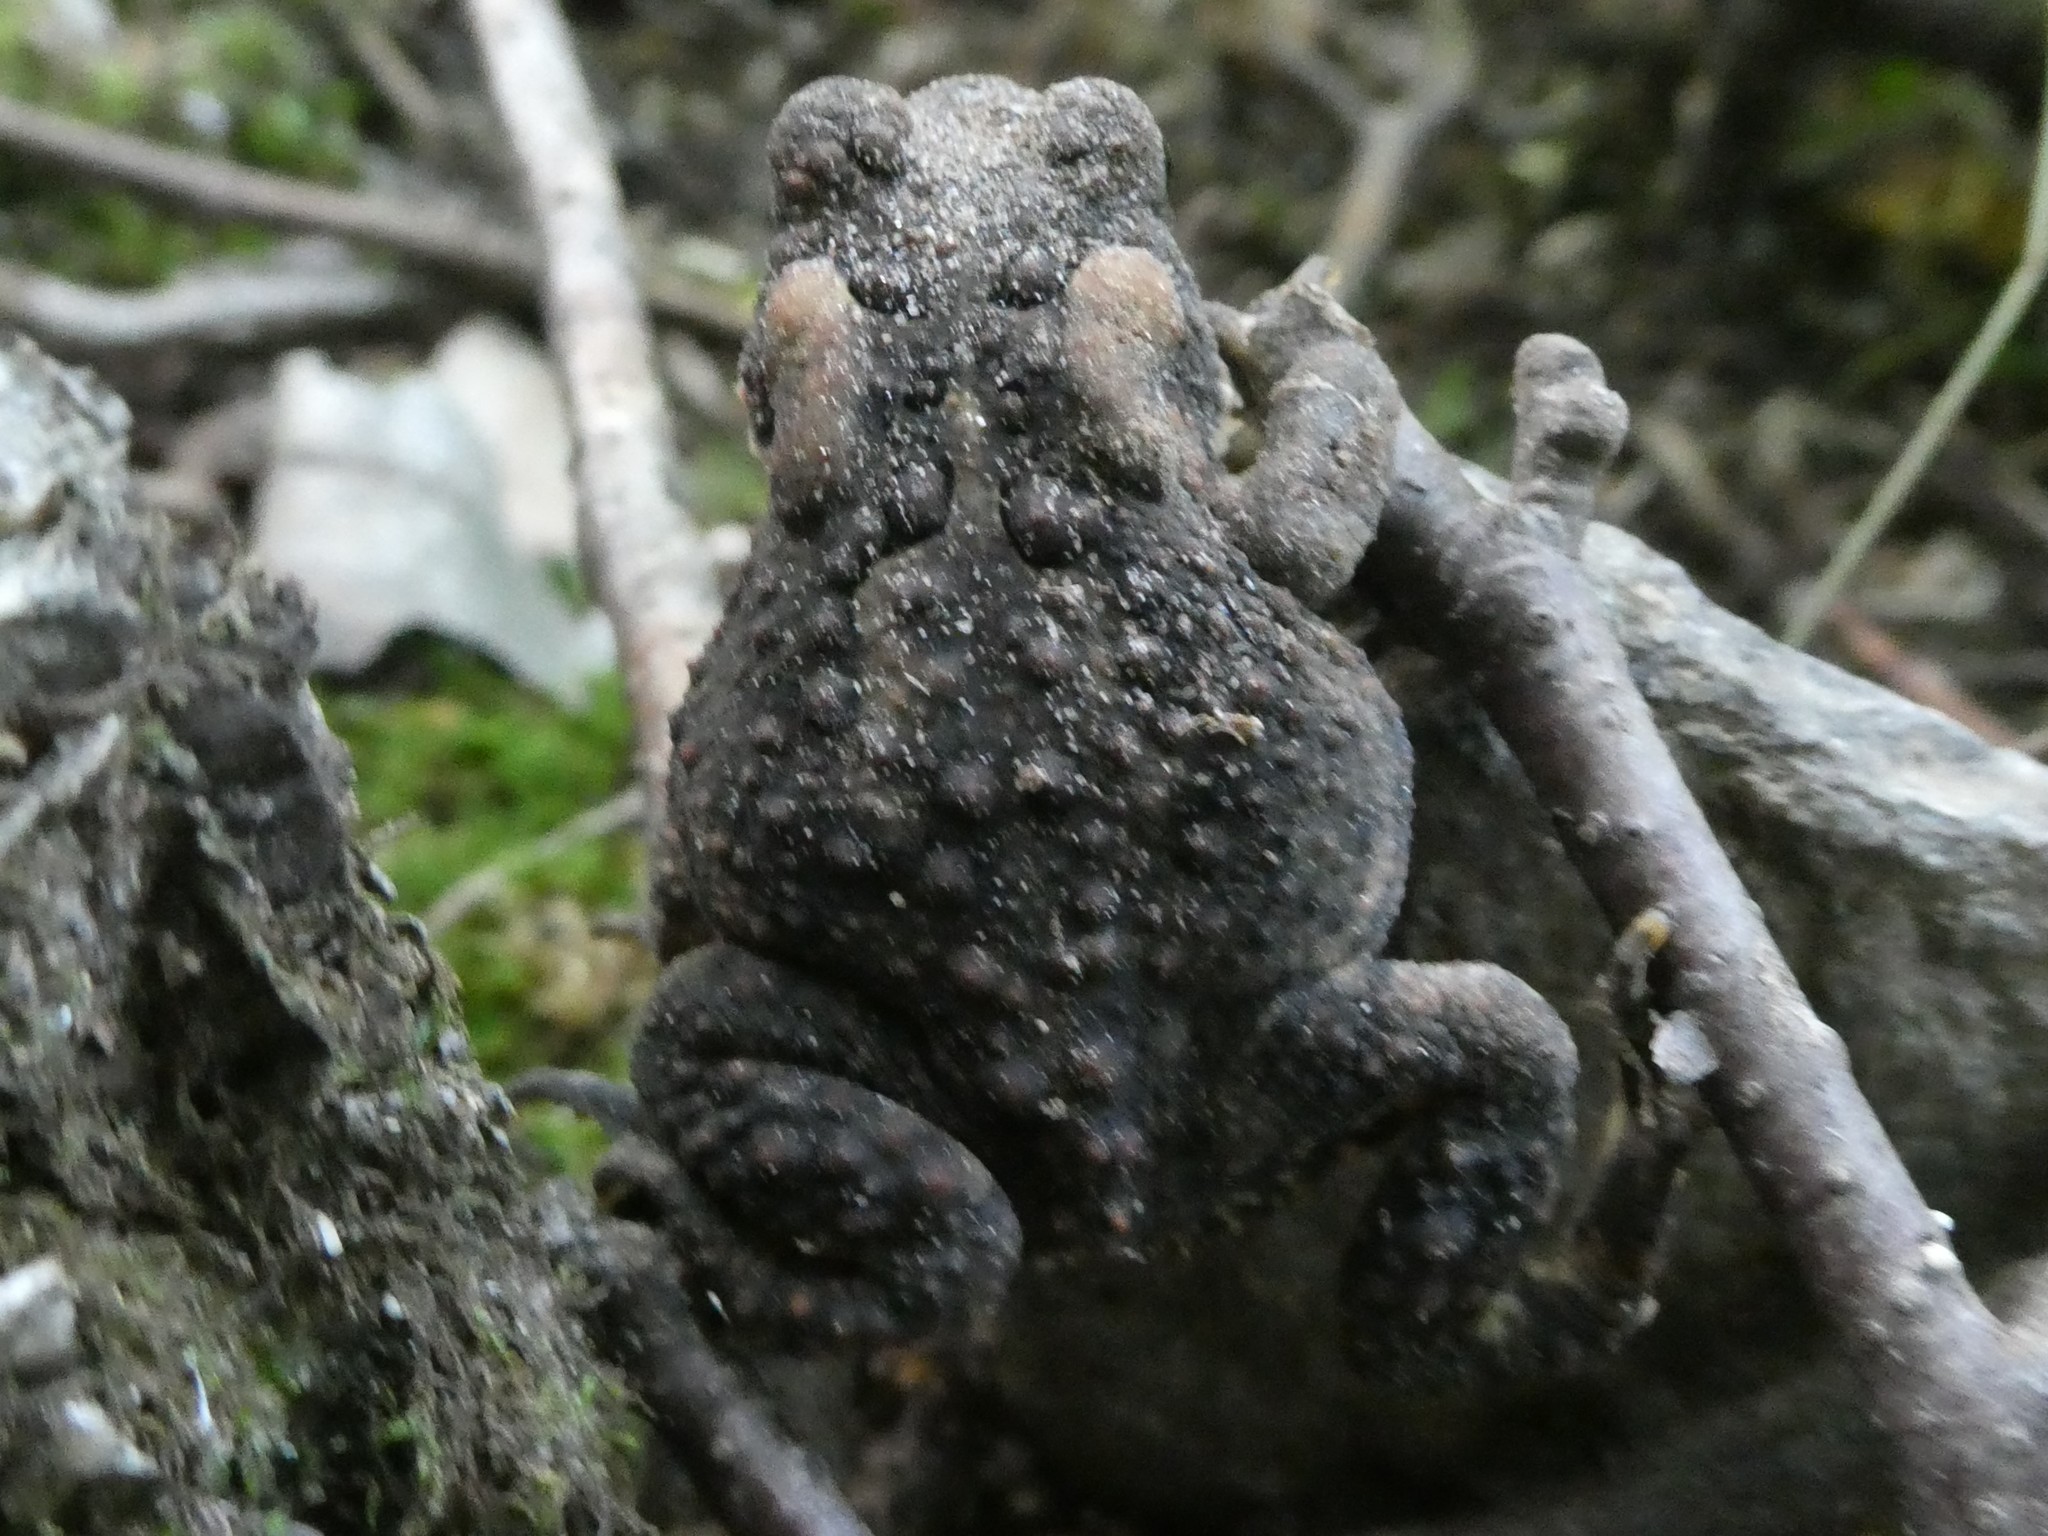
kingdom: Animalia
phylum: Chordata
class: Amphibia
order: Anura
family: Bufonidae
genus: Anaxyrus
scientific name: Anaxyrus americanus
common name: American toad
